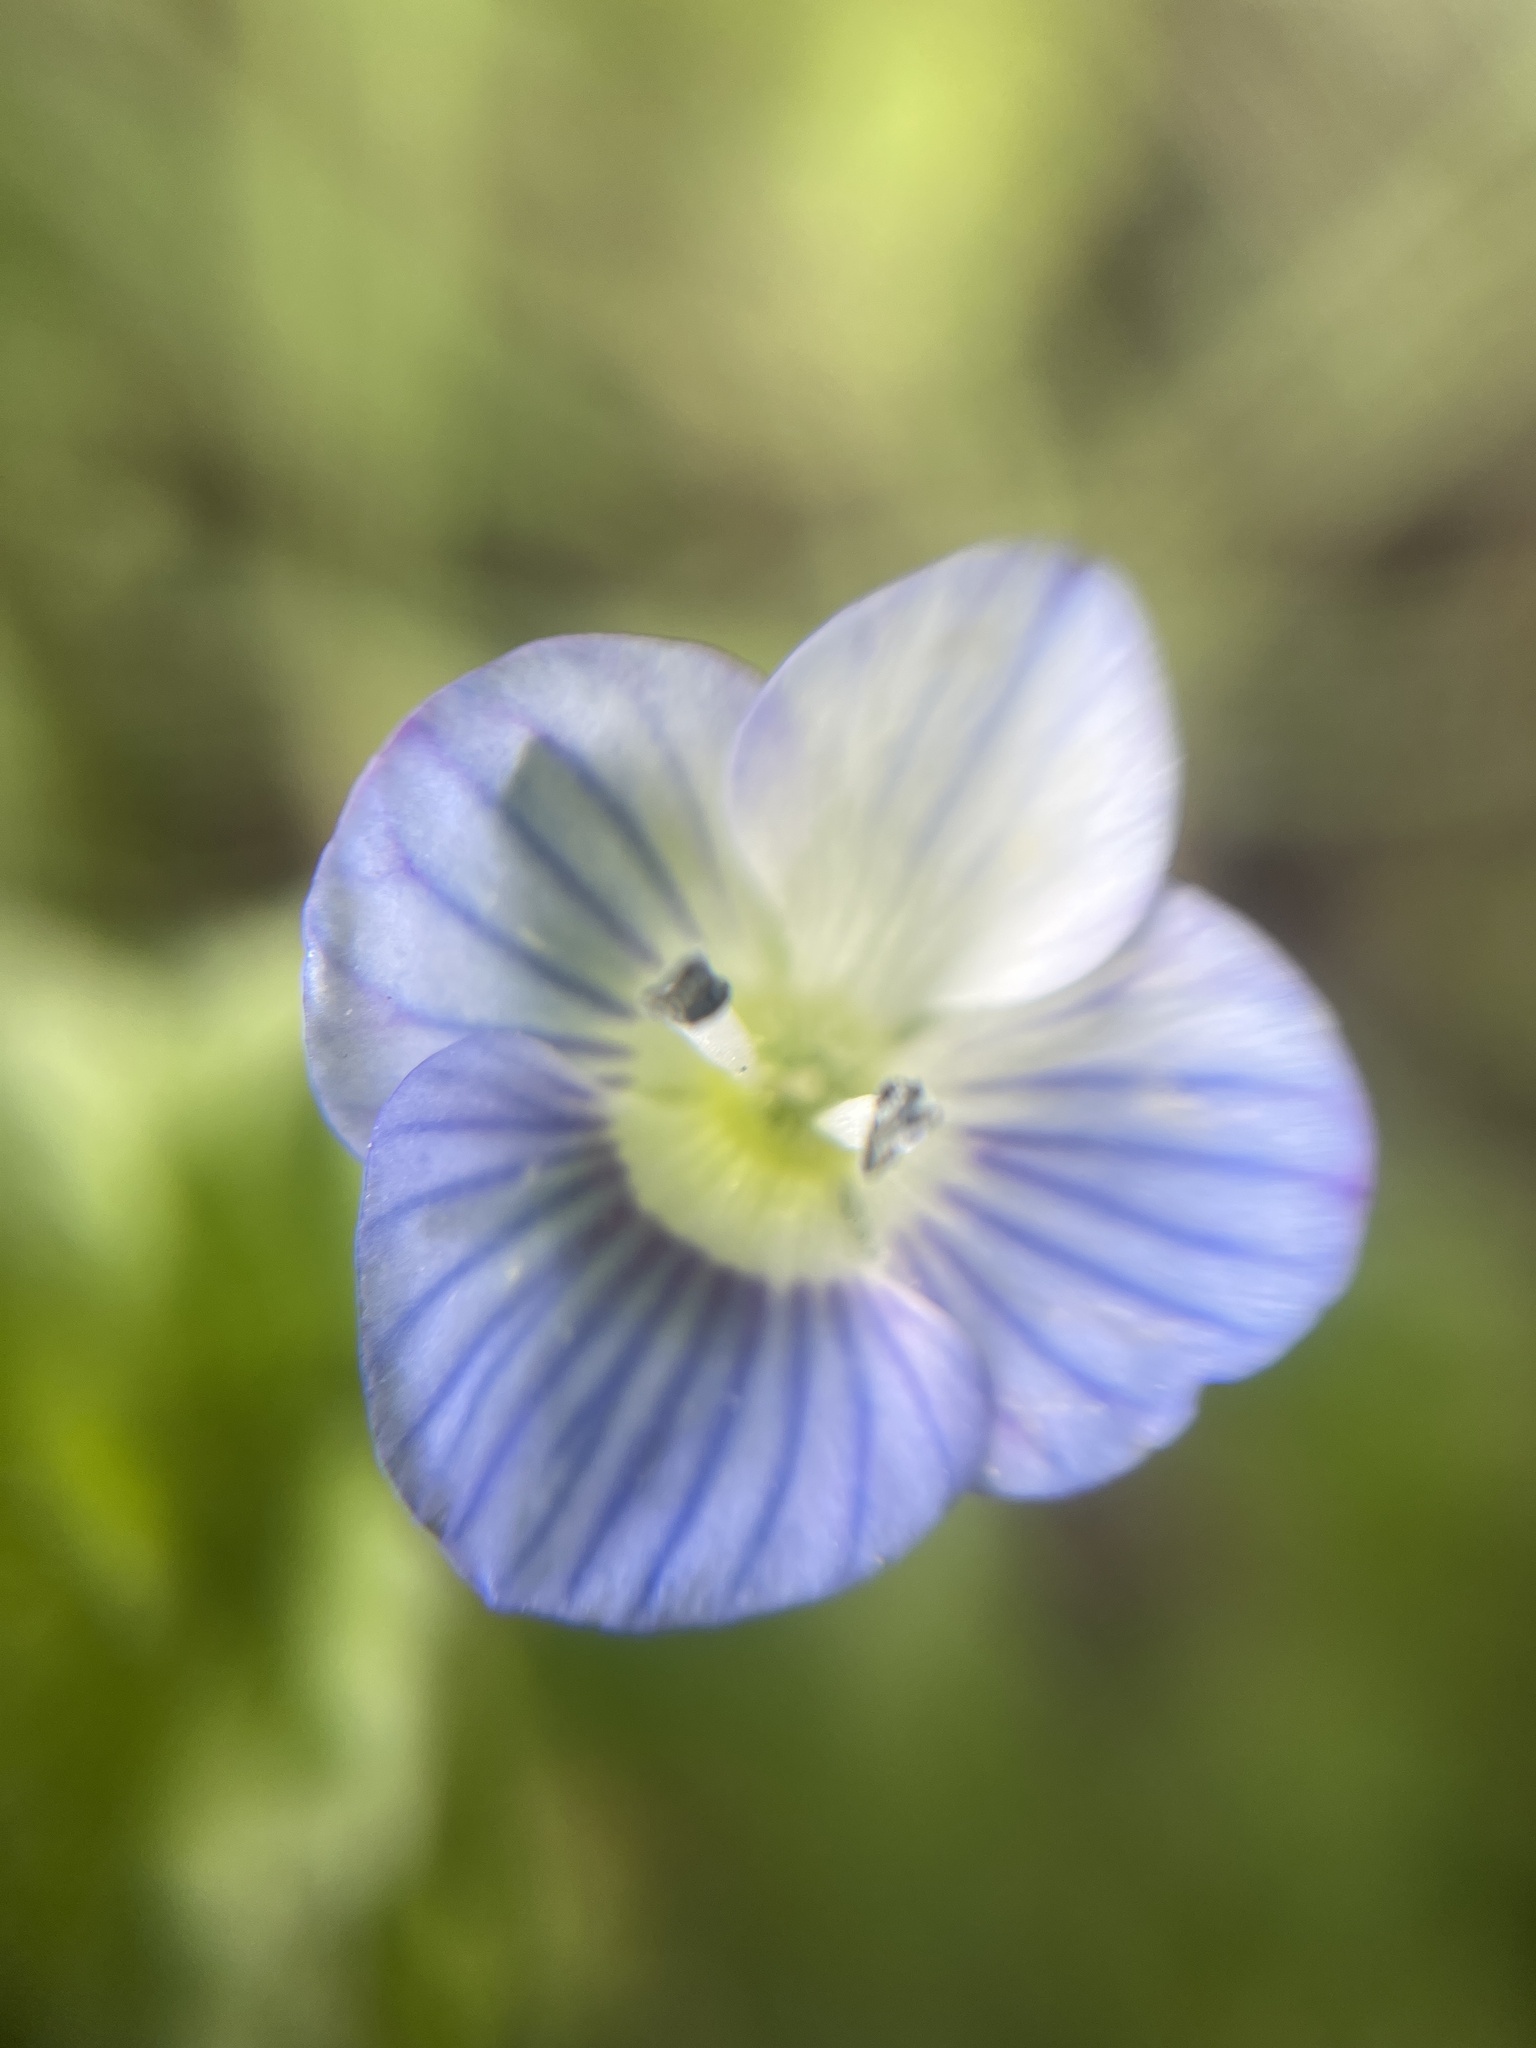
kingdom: Plantae
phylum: Tracheophyta
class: Magnoliopsida
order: Lamiales
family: Plantaginaceae
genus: Veronica
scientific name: Veronica persica
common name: Common field-speedwell
